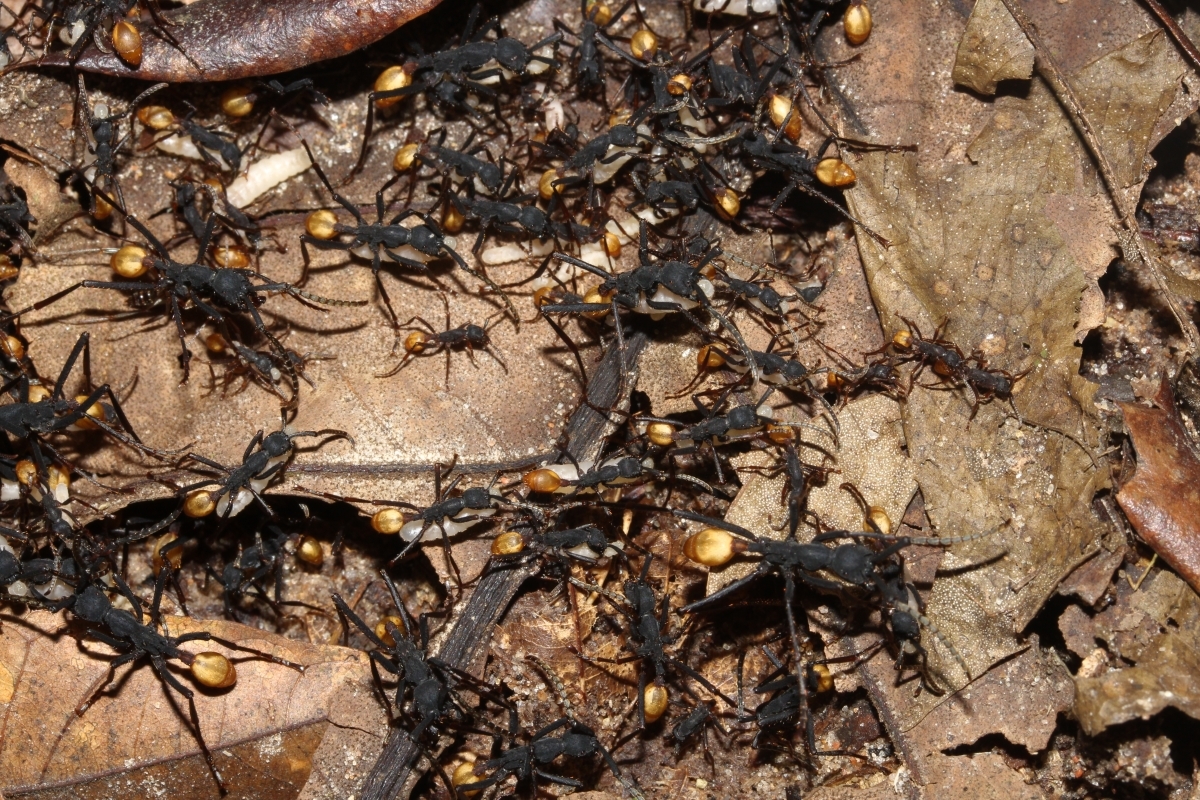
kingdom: Animalia
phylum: Arthropoda
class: Insecta
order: Hymenoptera
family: Formicidae
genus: Eciton
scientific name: Eciton rapax
